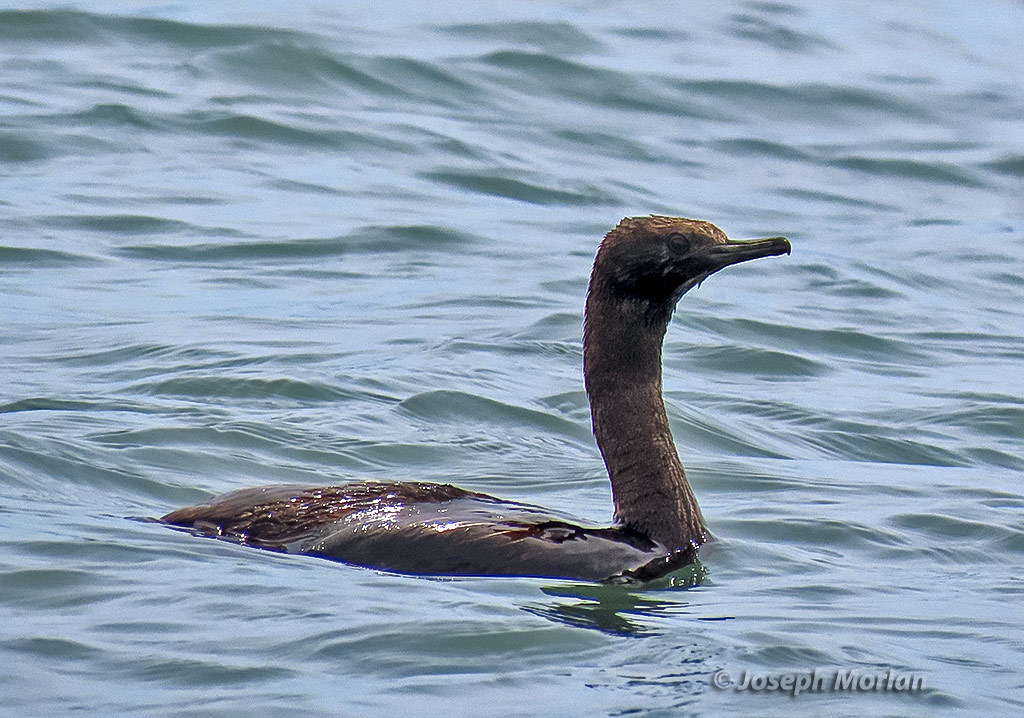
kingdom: Animalia
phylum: Chordata
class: Aves
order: Suliformes
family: Phalacrocoracidae
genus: Phalacrocorax
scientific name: Phalacrocorax pelagicus
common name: Pelagic cormorant
